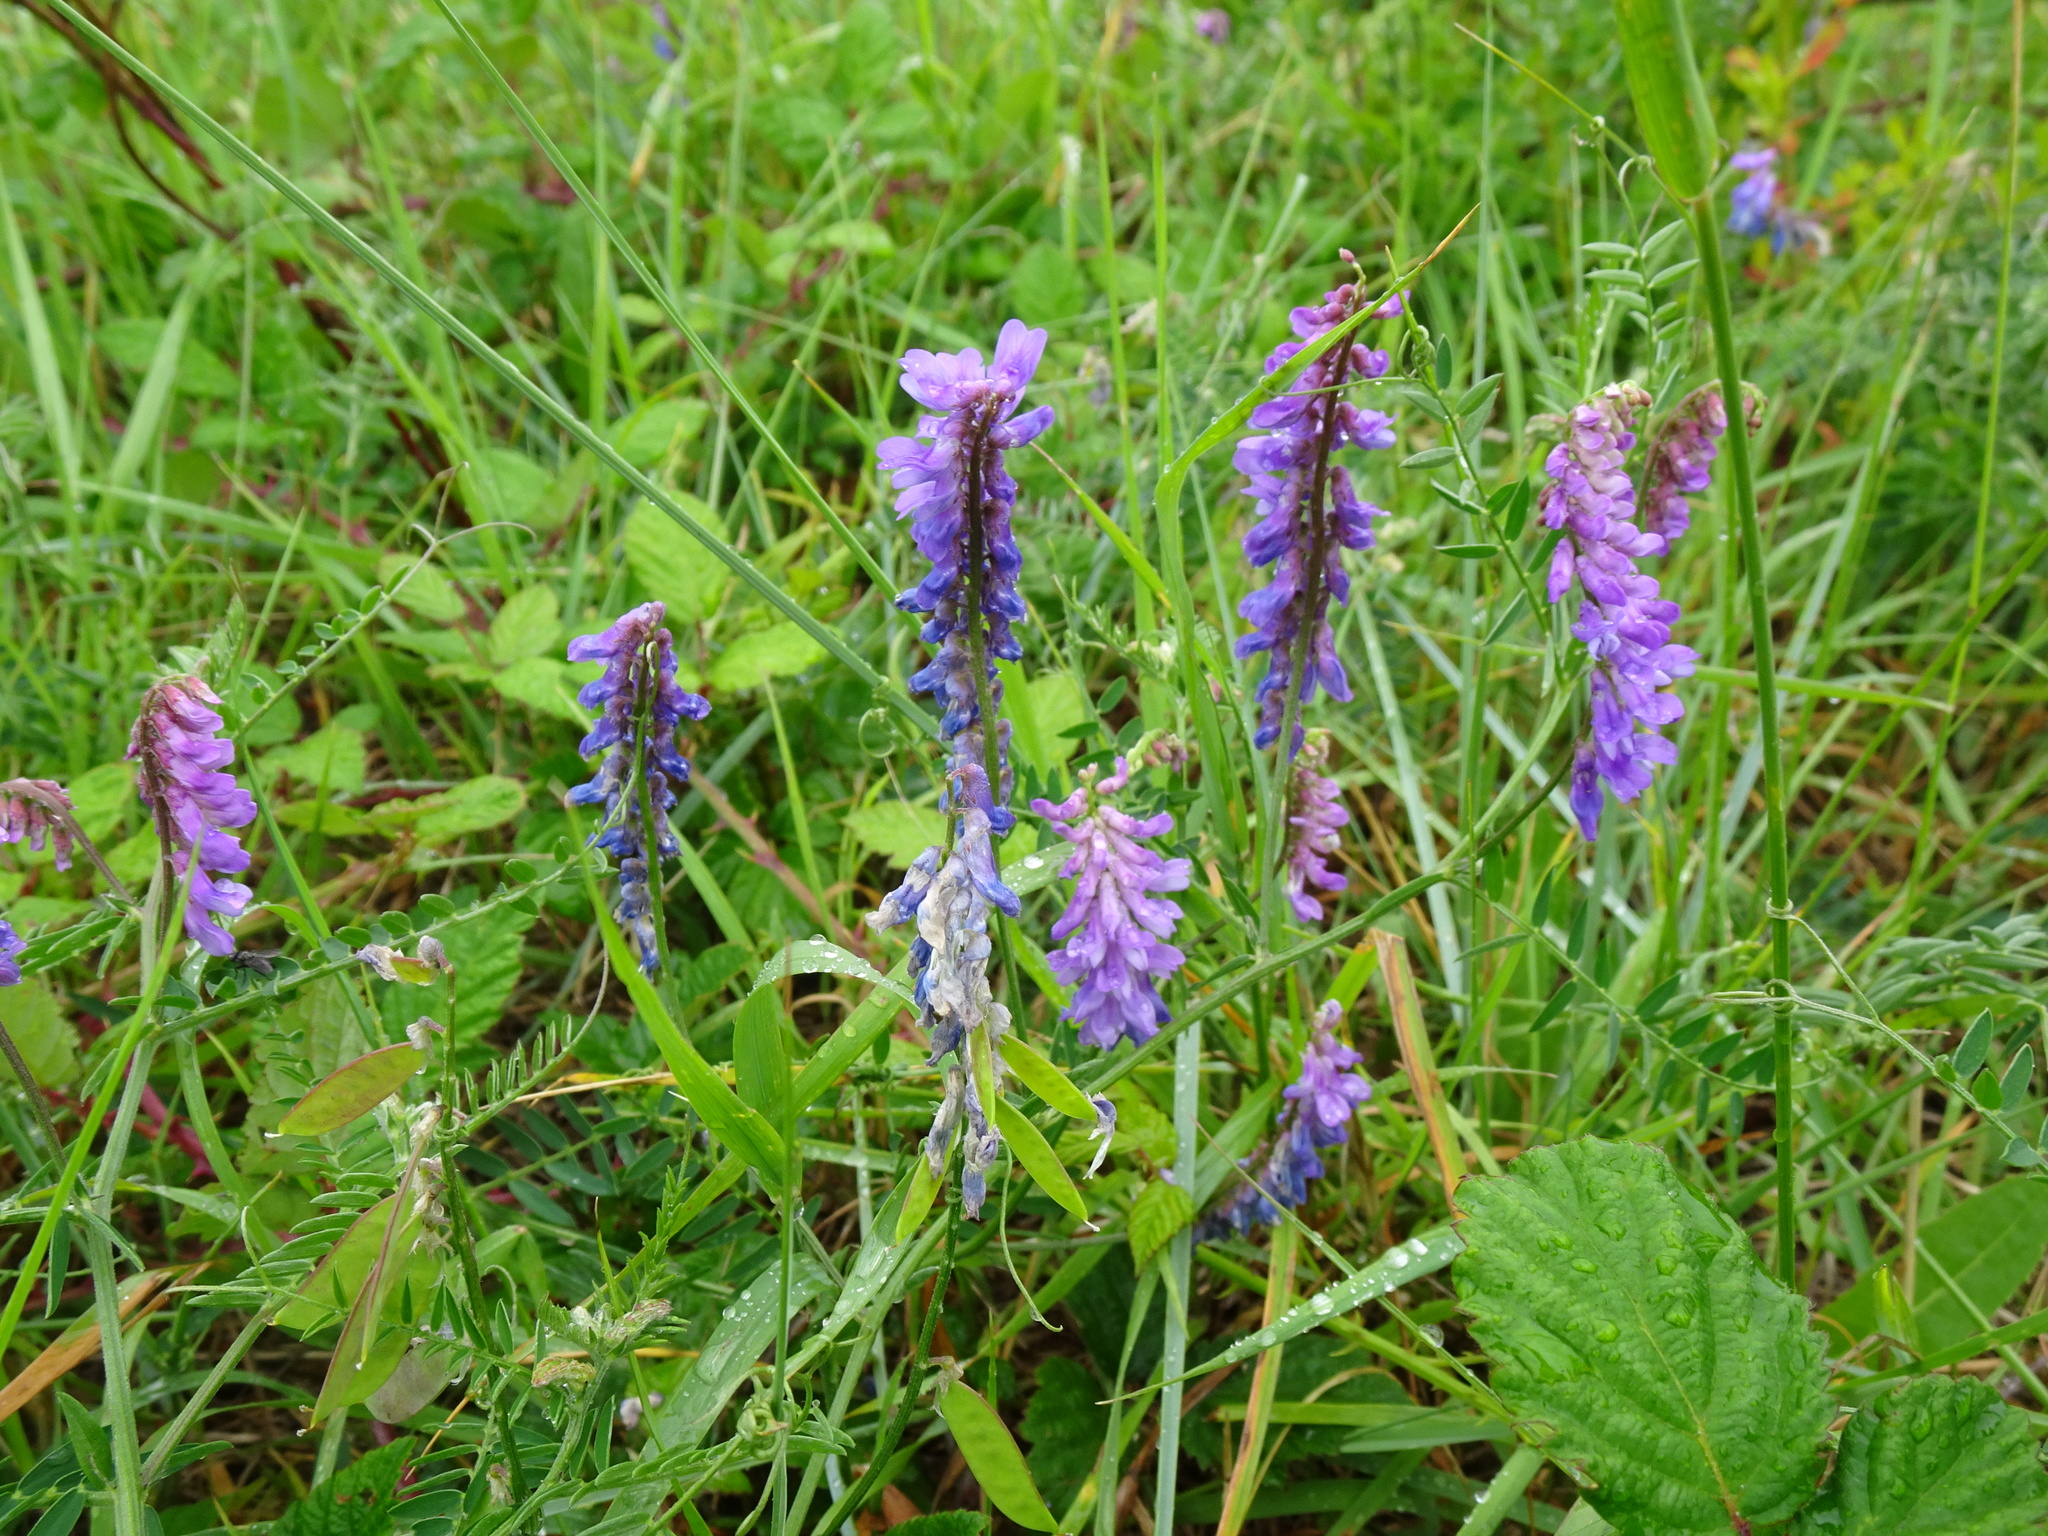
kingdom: Plantae
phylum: Tracheophyta
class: Magnoliopsida
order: Fabales
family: Fabaceae
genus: Vicia
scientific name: Vicia cracca
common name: Bird vetch
